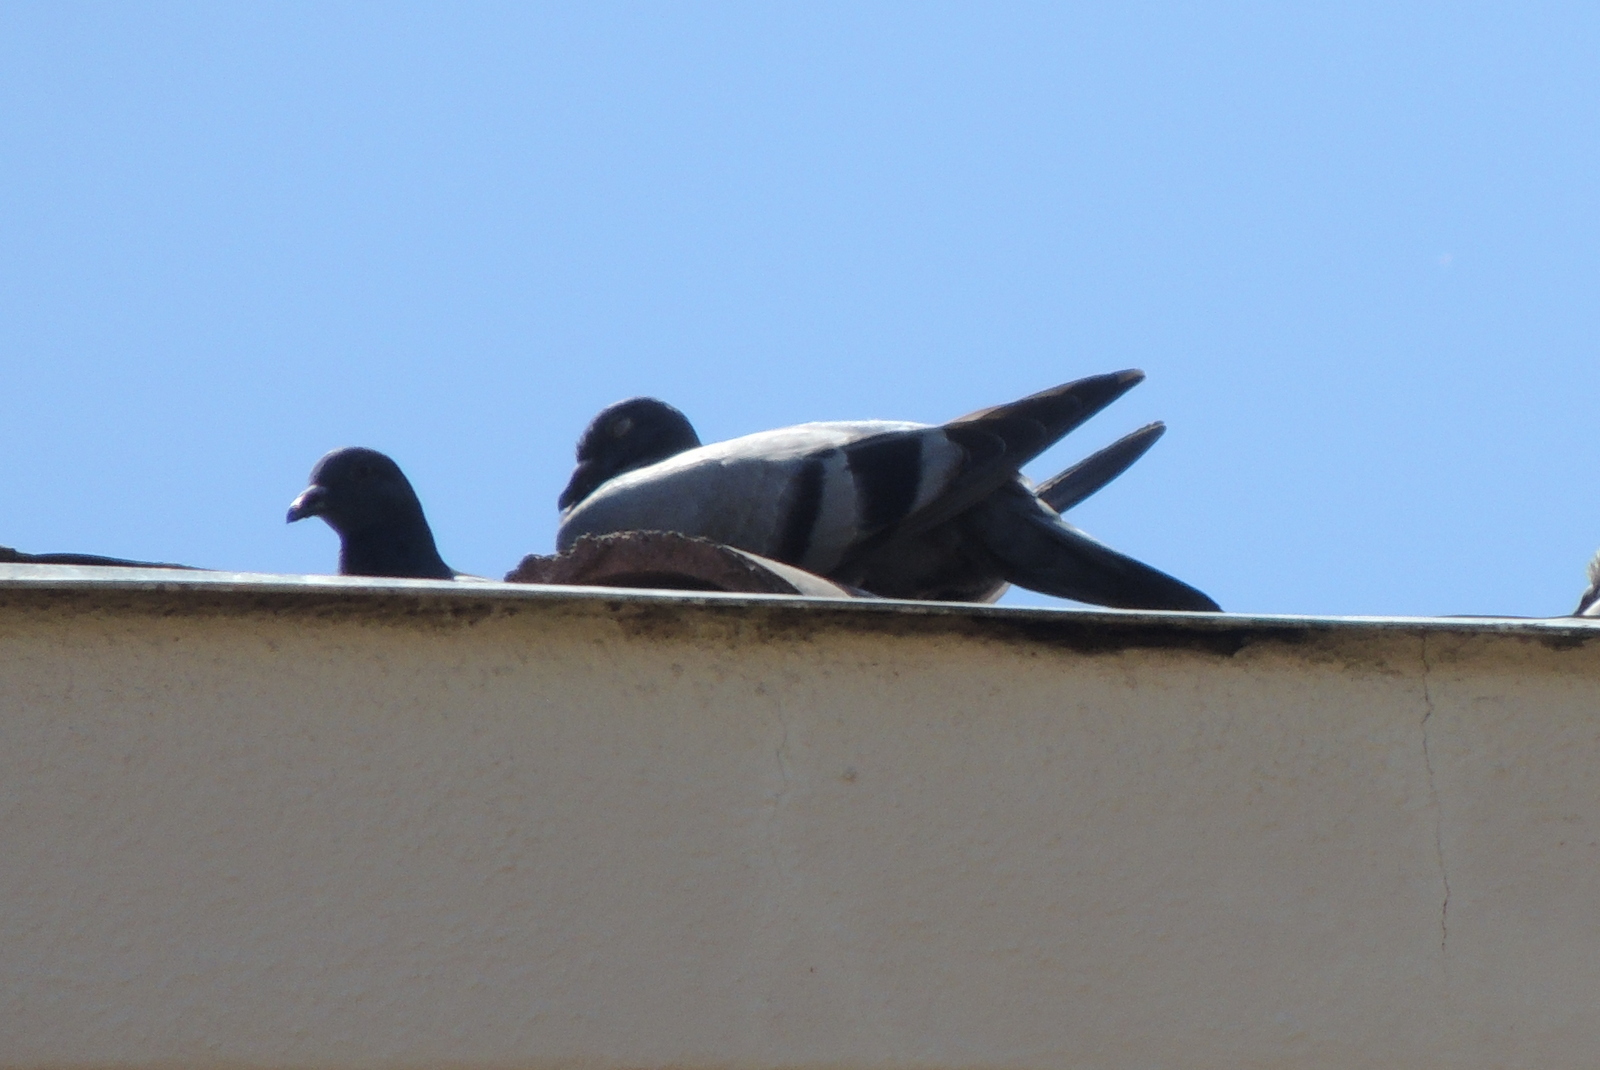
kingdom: Animalia
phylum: Chordata
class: Aves
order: Columbiformes
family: Columbidae
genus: Columba
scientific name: Columba livia
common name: Rock pigeon
